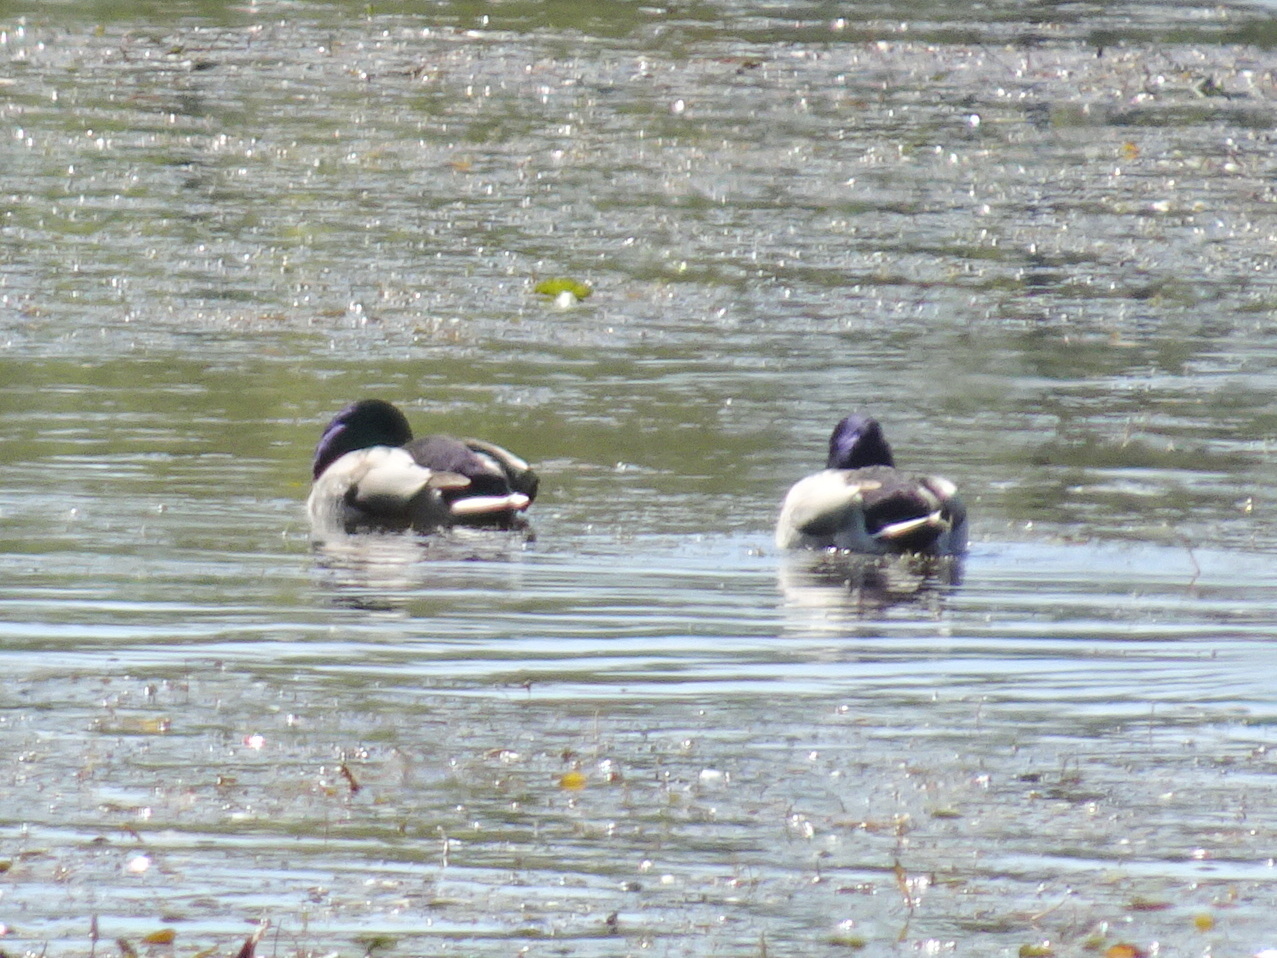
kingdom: Animalia
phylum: Chordata
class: Aves
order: Anseriformes
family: Anatidae
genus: Anas
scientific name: Anas platyrhynchos
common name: Mallard
